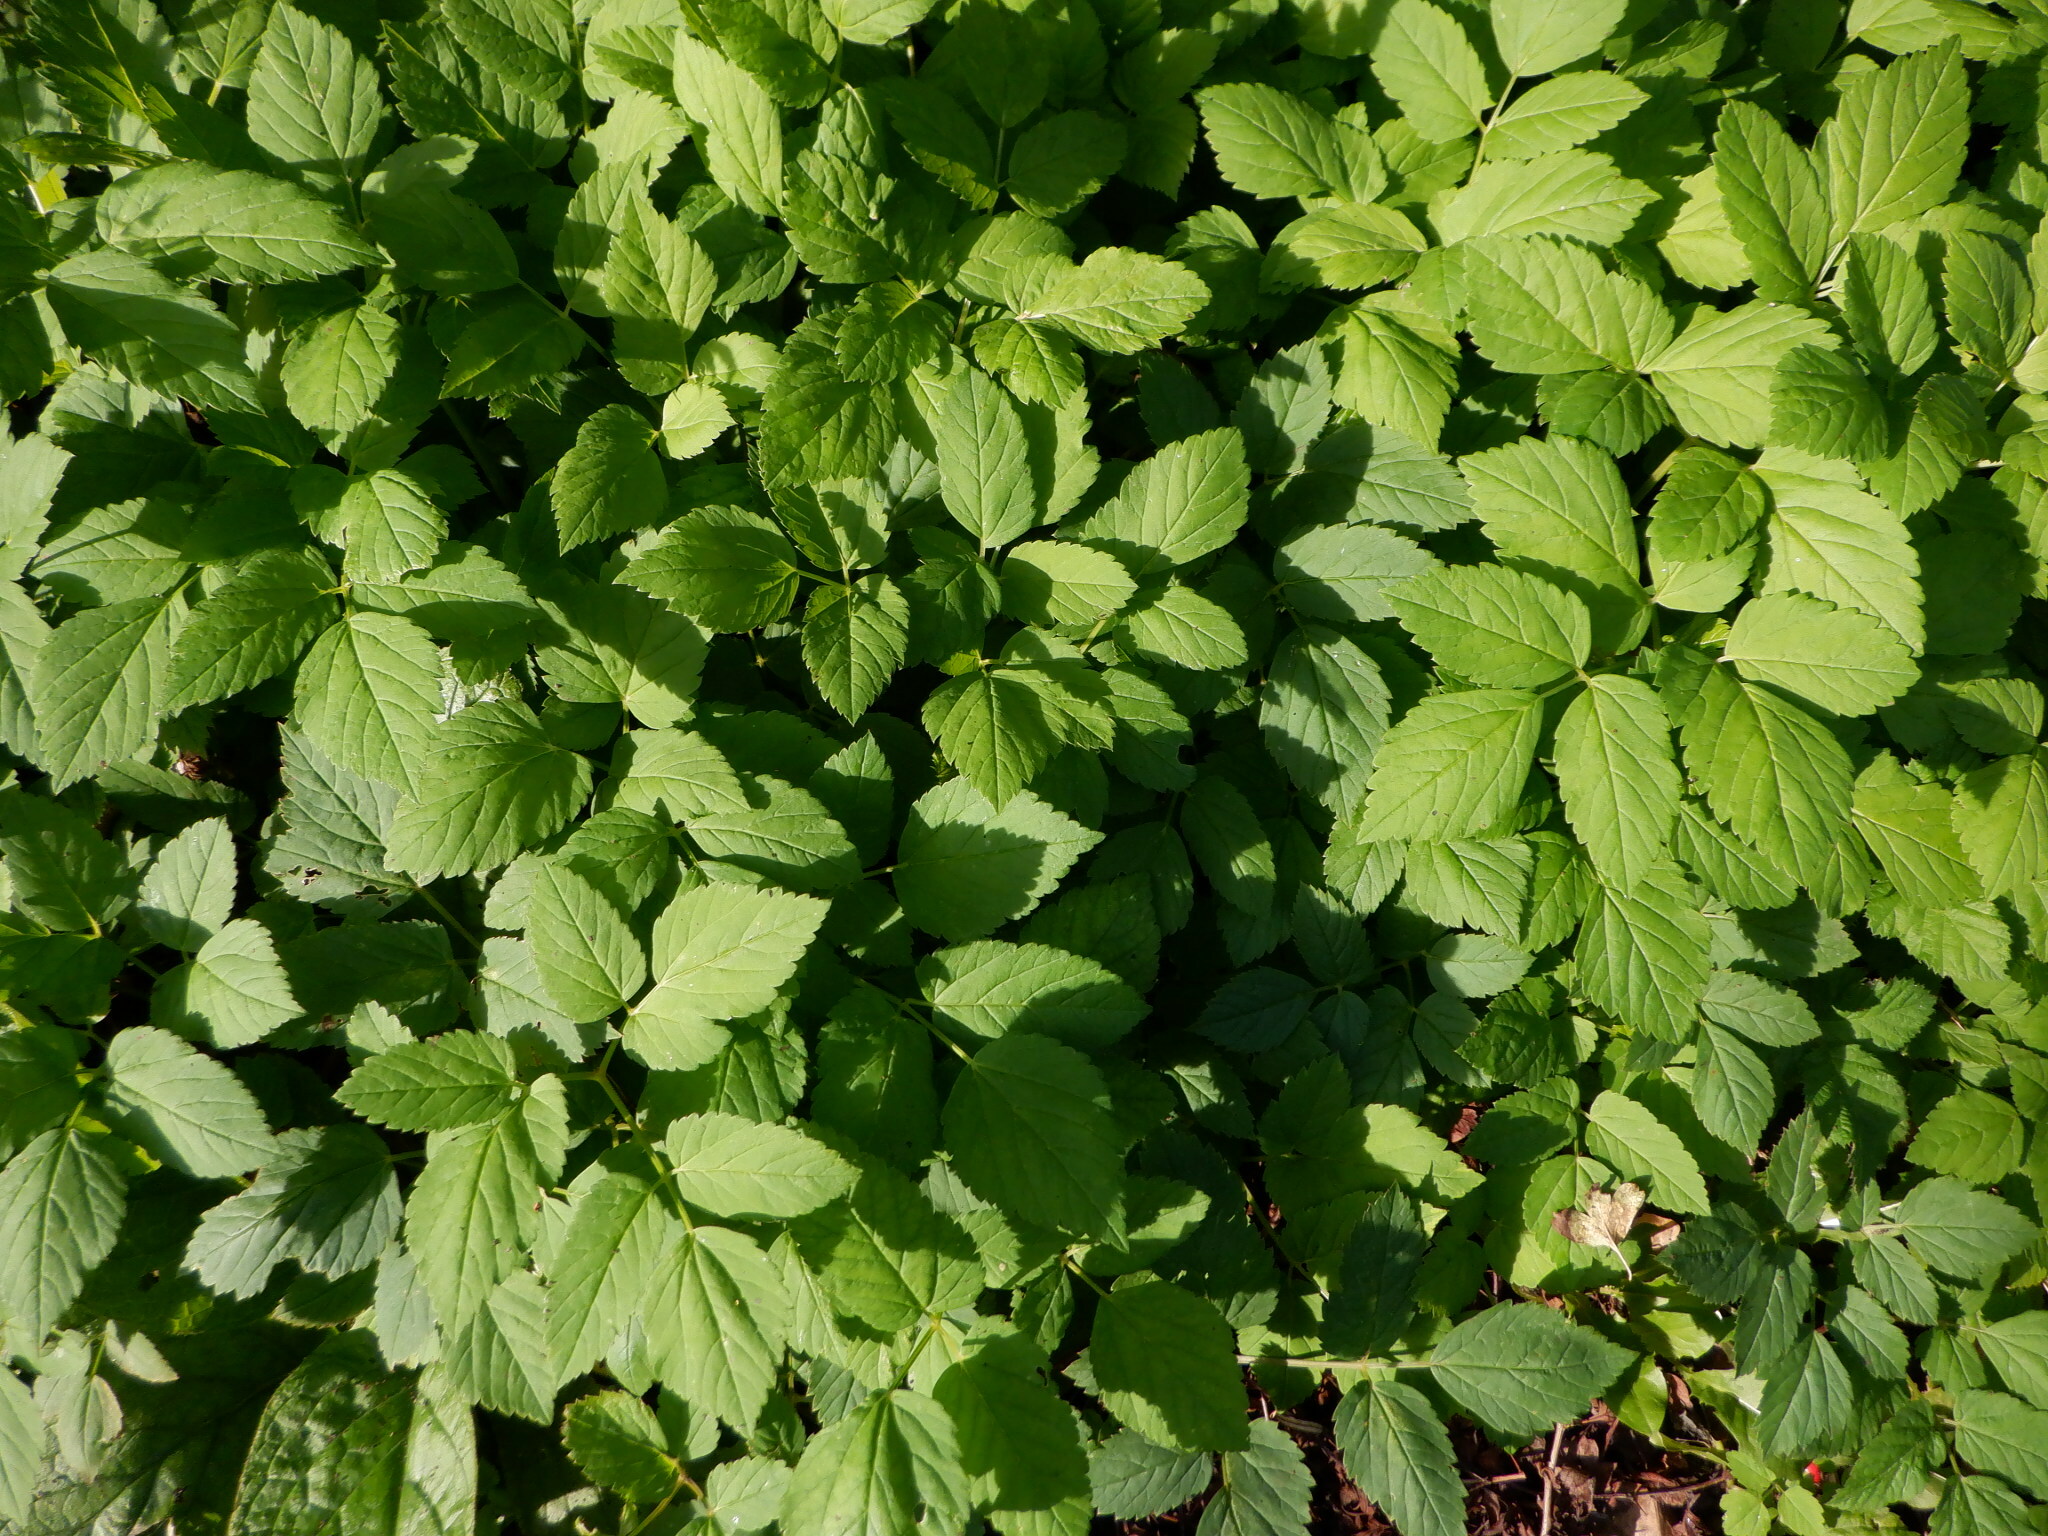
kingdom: Plantae
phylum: Tracheophyta
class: Magnoliopsida
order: Apiales
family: Apiaceae
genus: Aegopodium
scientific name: Aegopodium podagraria
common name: Ground-elder
